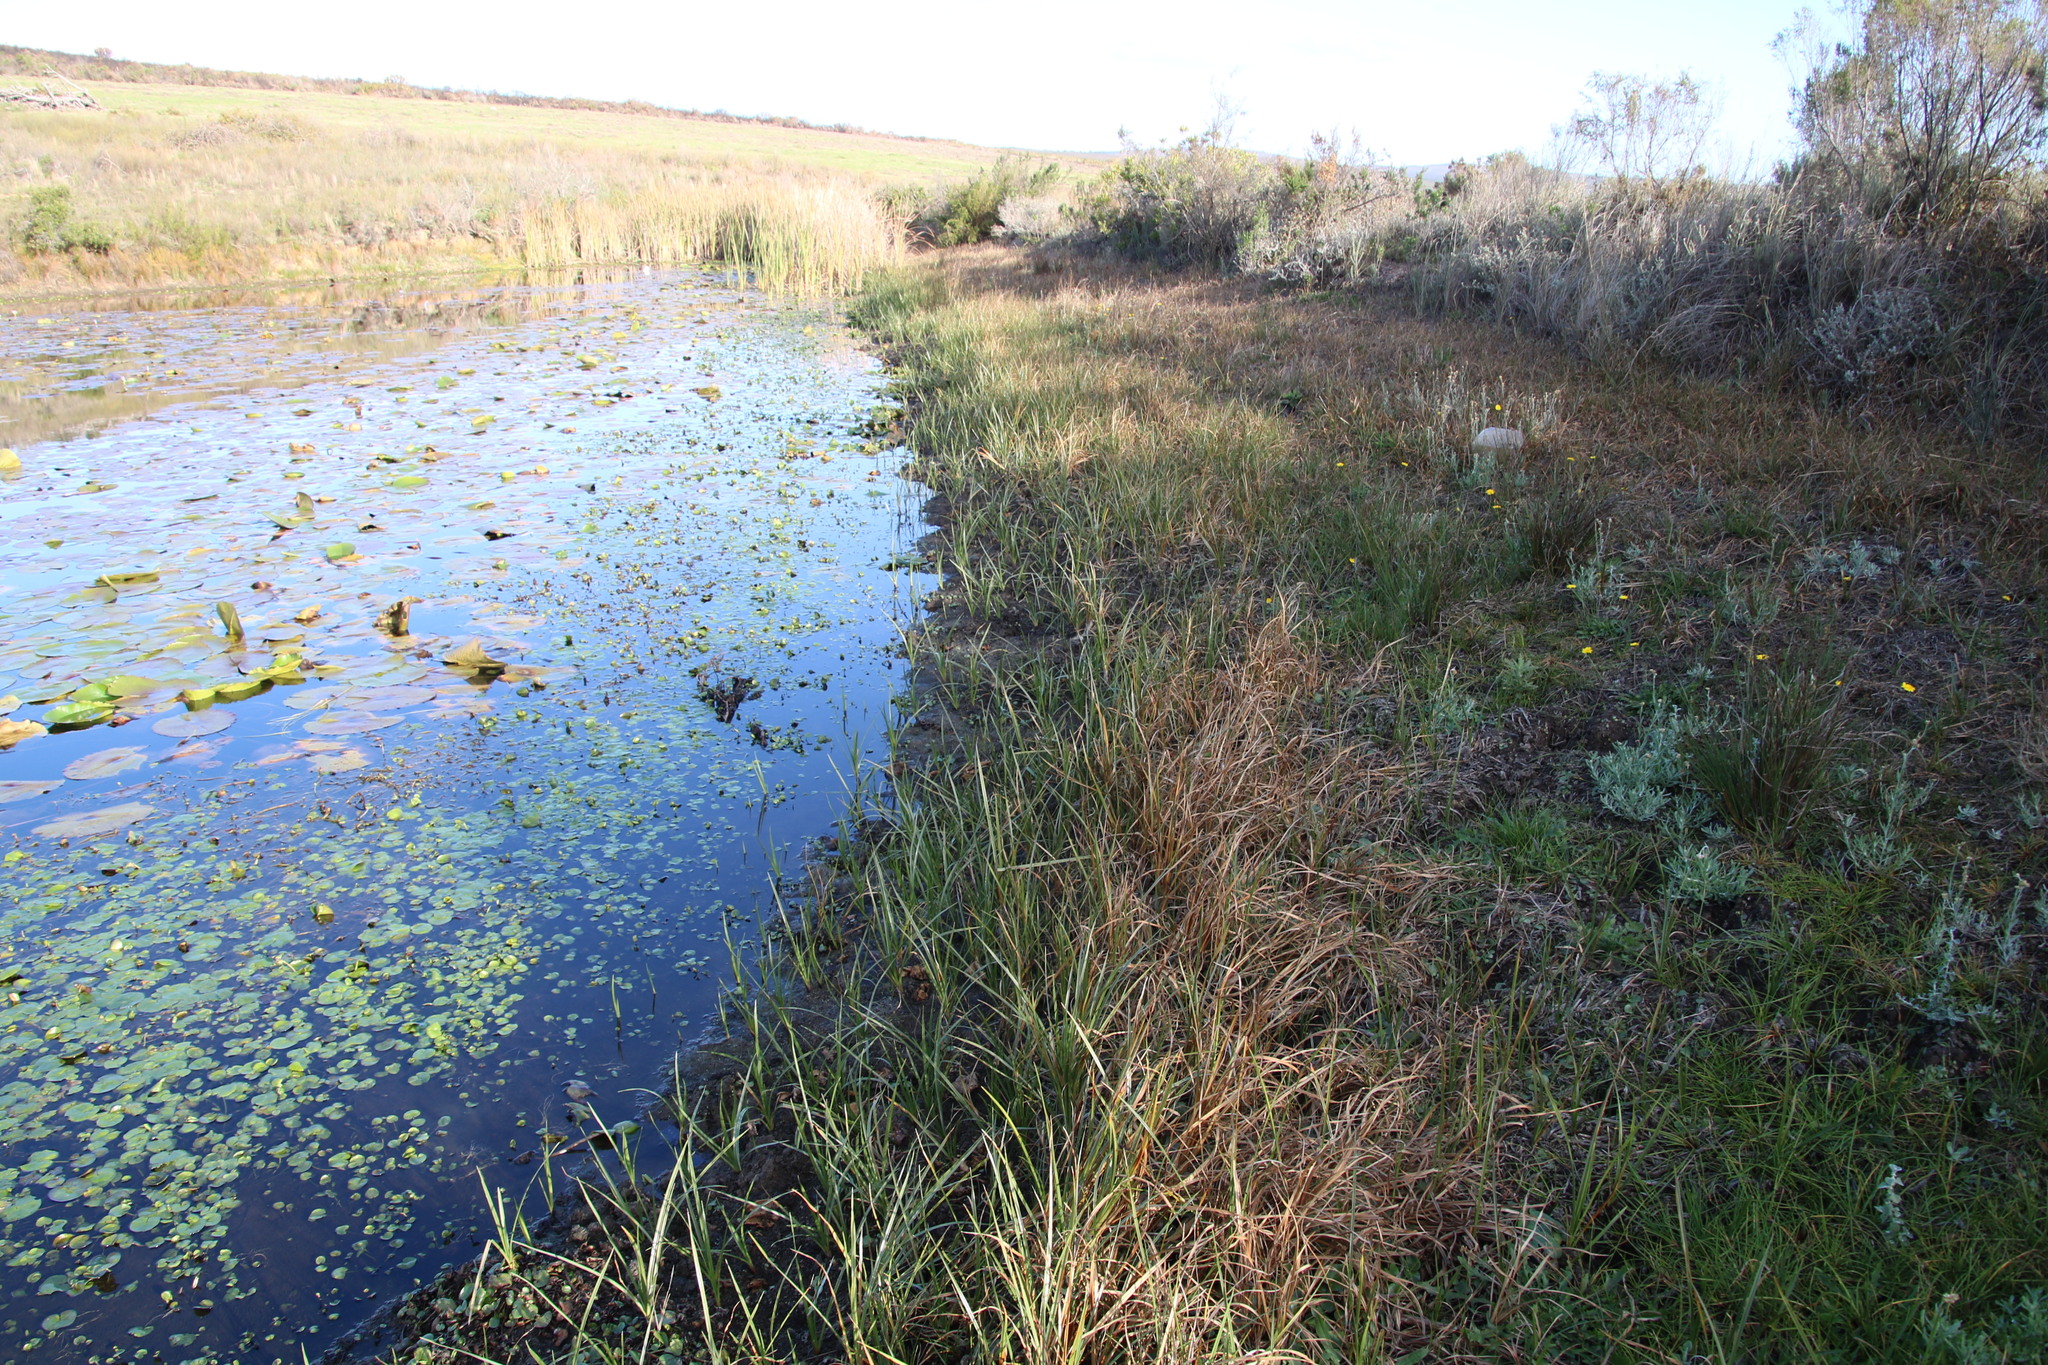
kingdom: Plantae
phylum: Tracheophyta
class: Liliopsida
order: Poales
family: Cyperaceae
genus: Cyperus
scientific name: Cyperus nitidus
